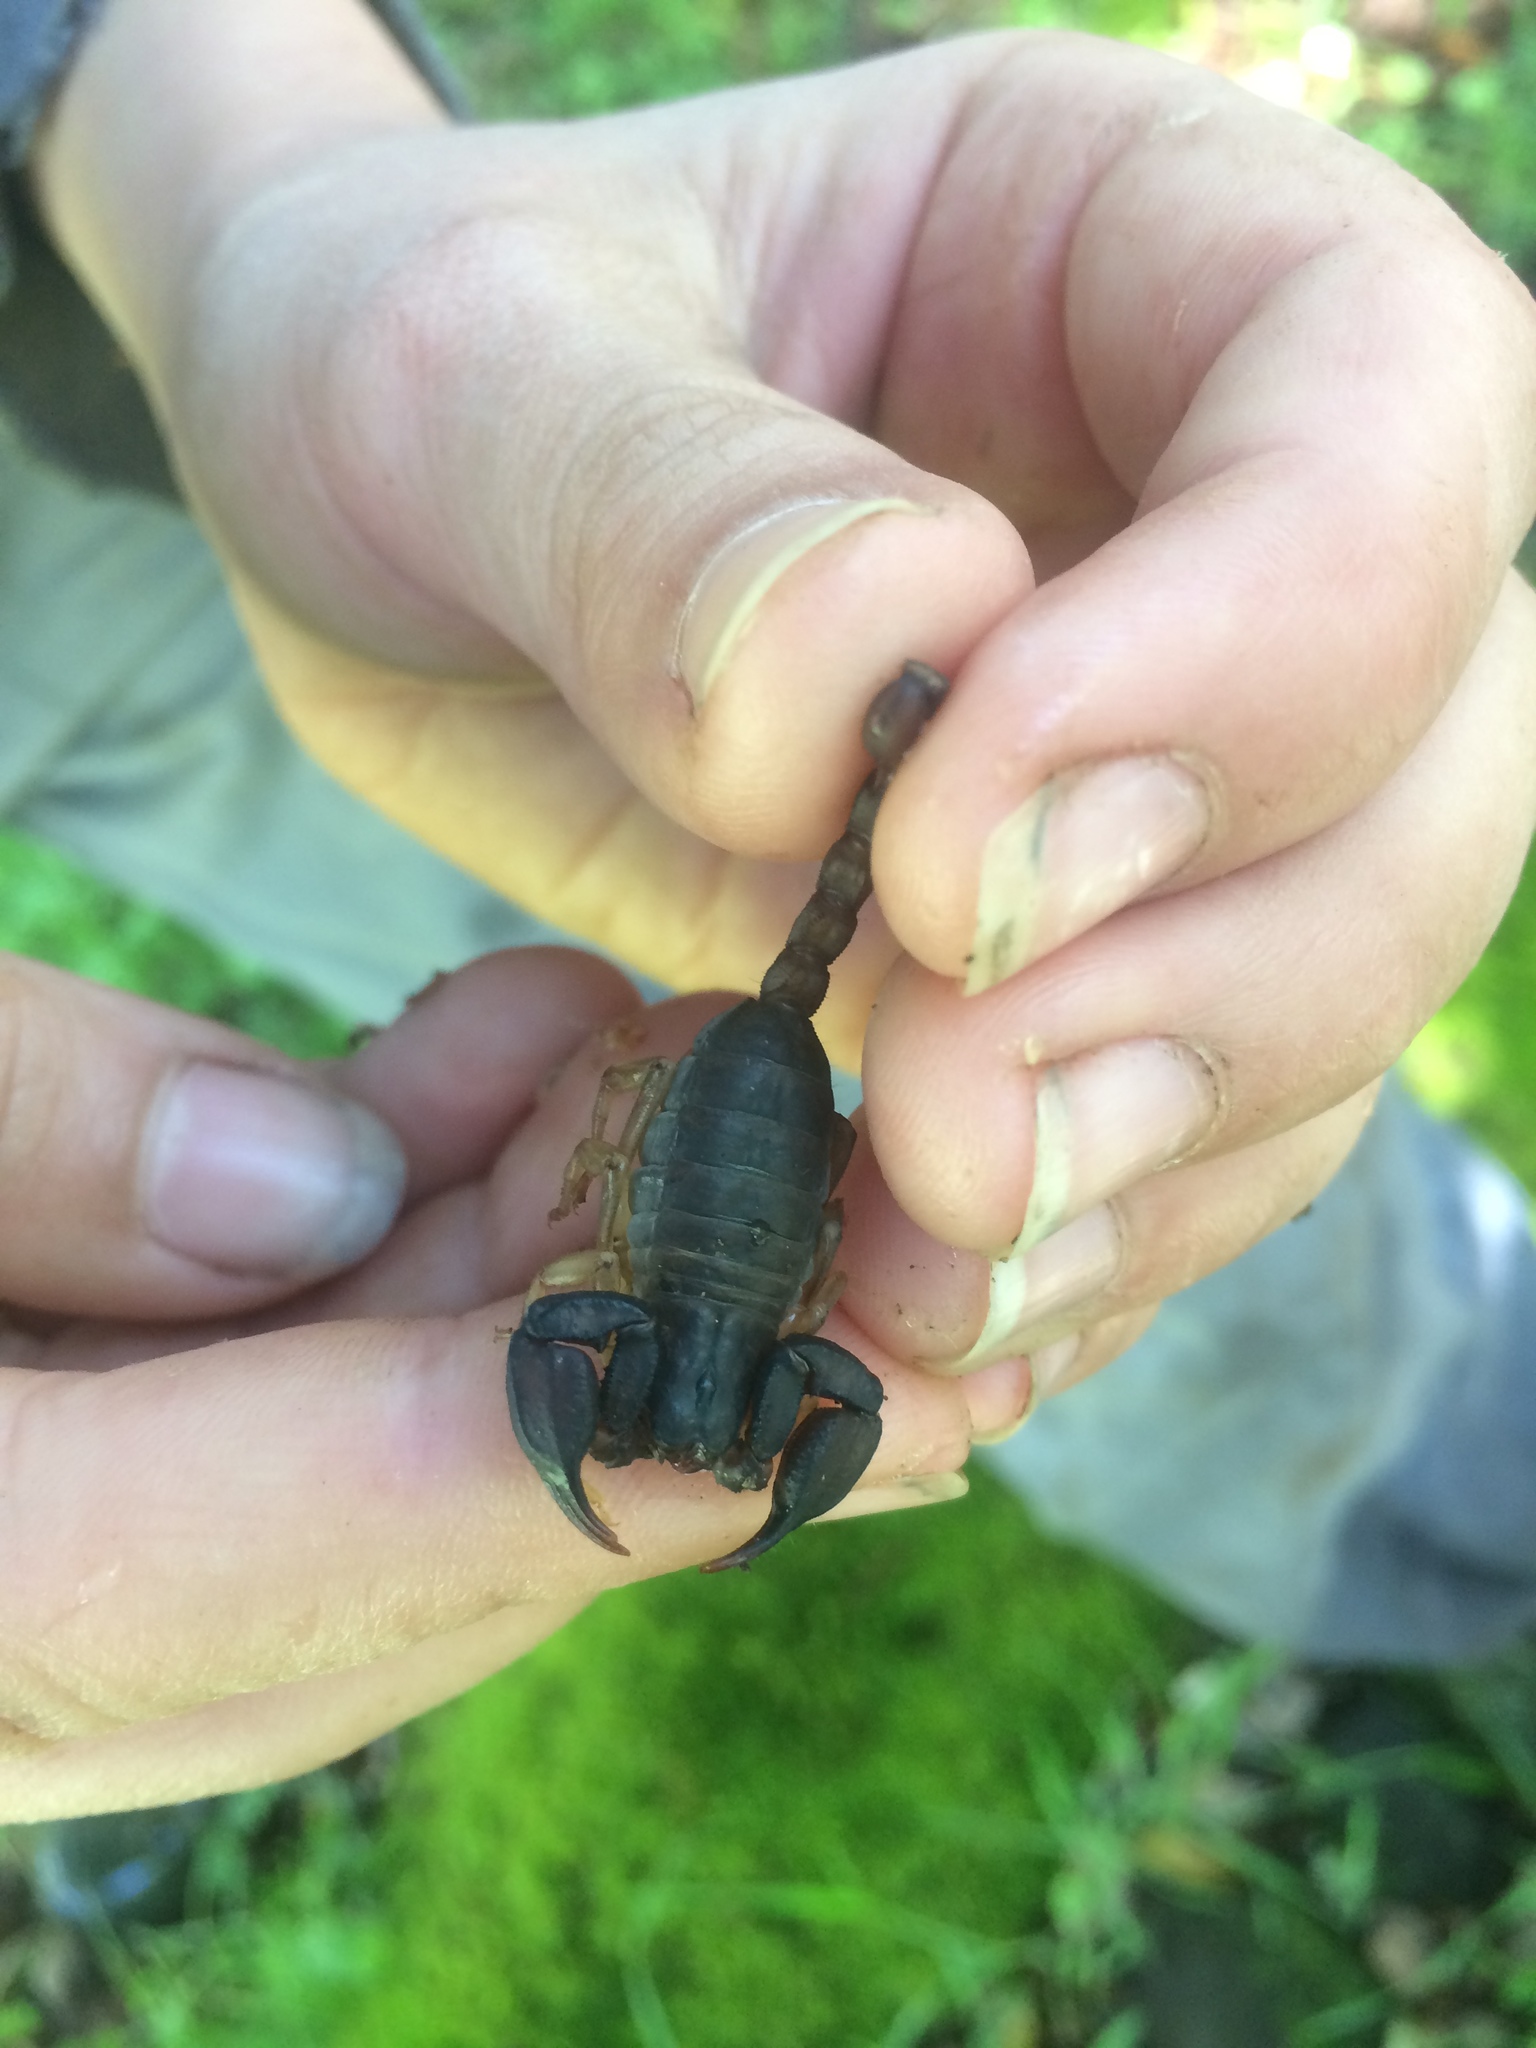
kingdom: Animalia
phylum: Arthropoda
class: Arachnida
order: Scorpiones
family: Chactidae
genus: Uroctonus
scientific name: Uroctonus mordax
